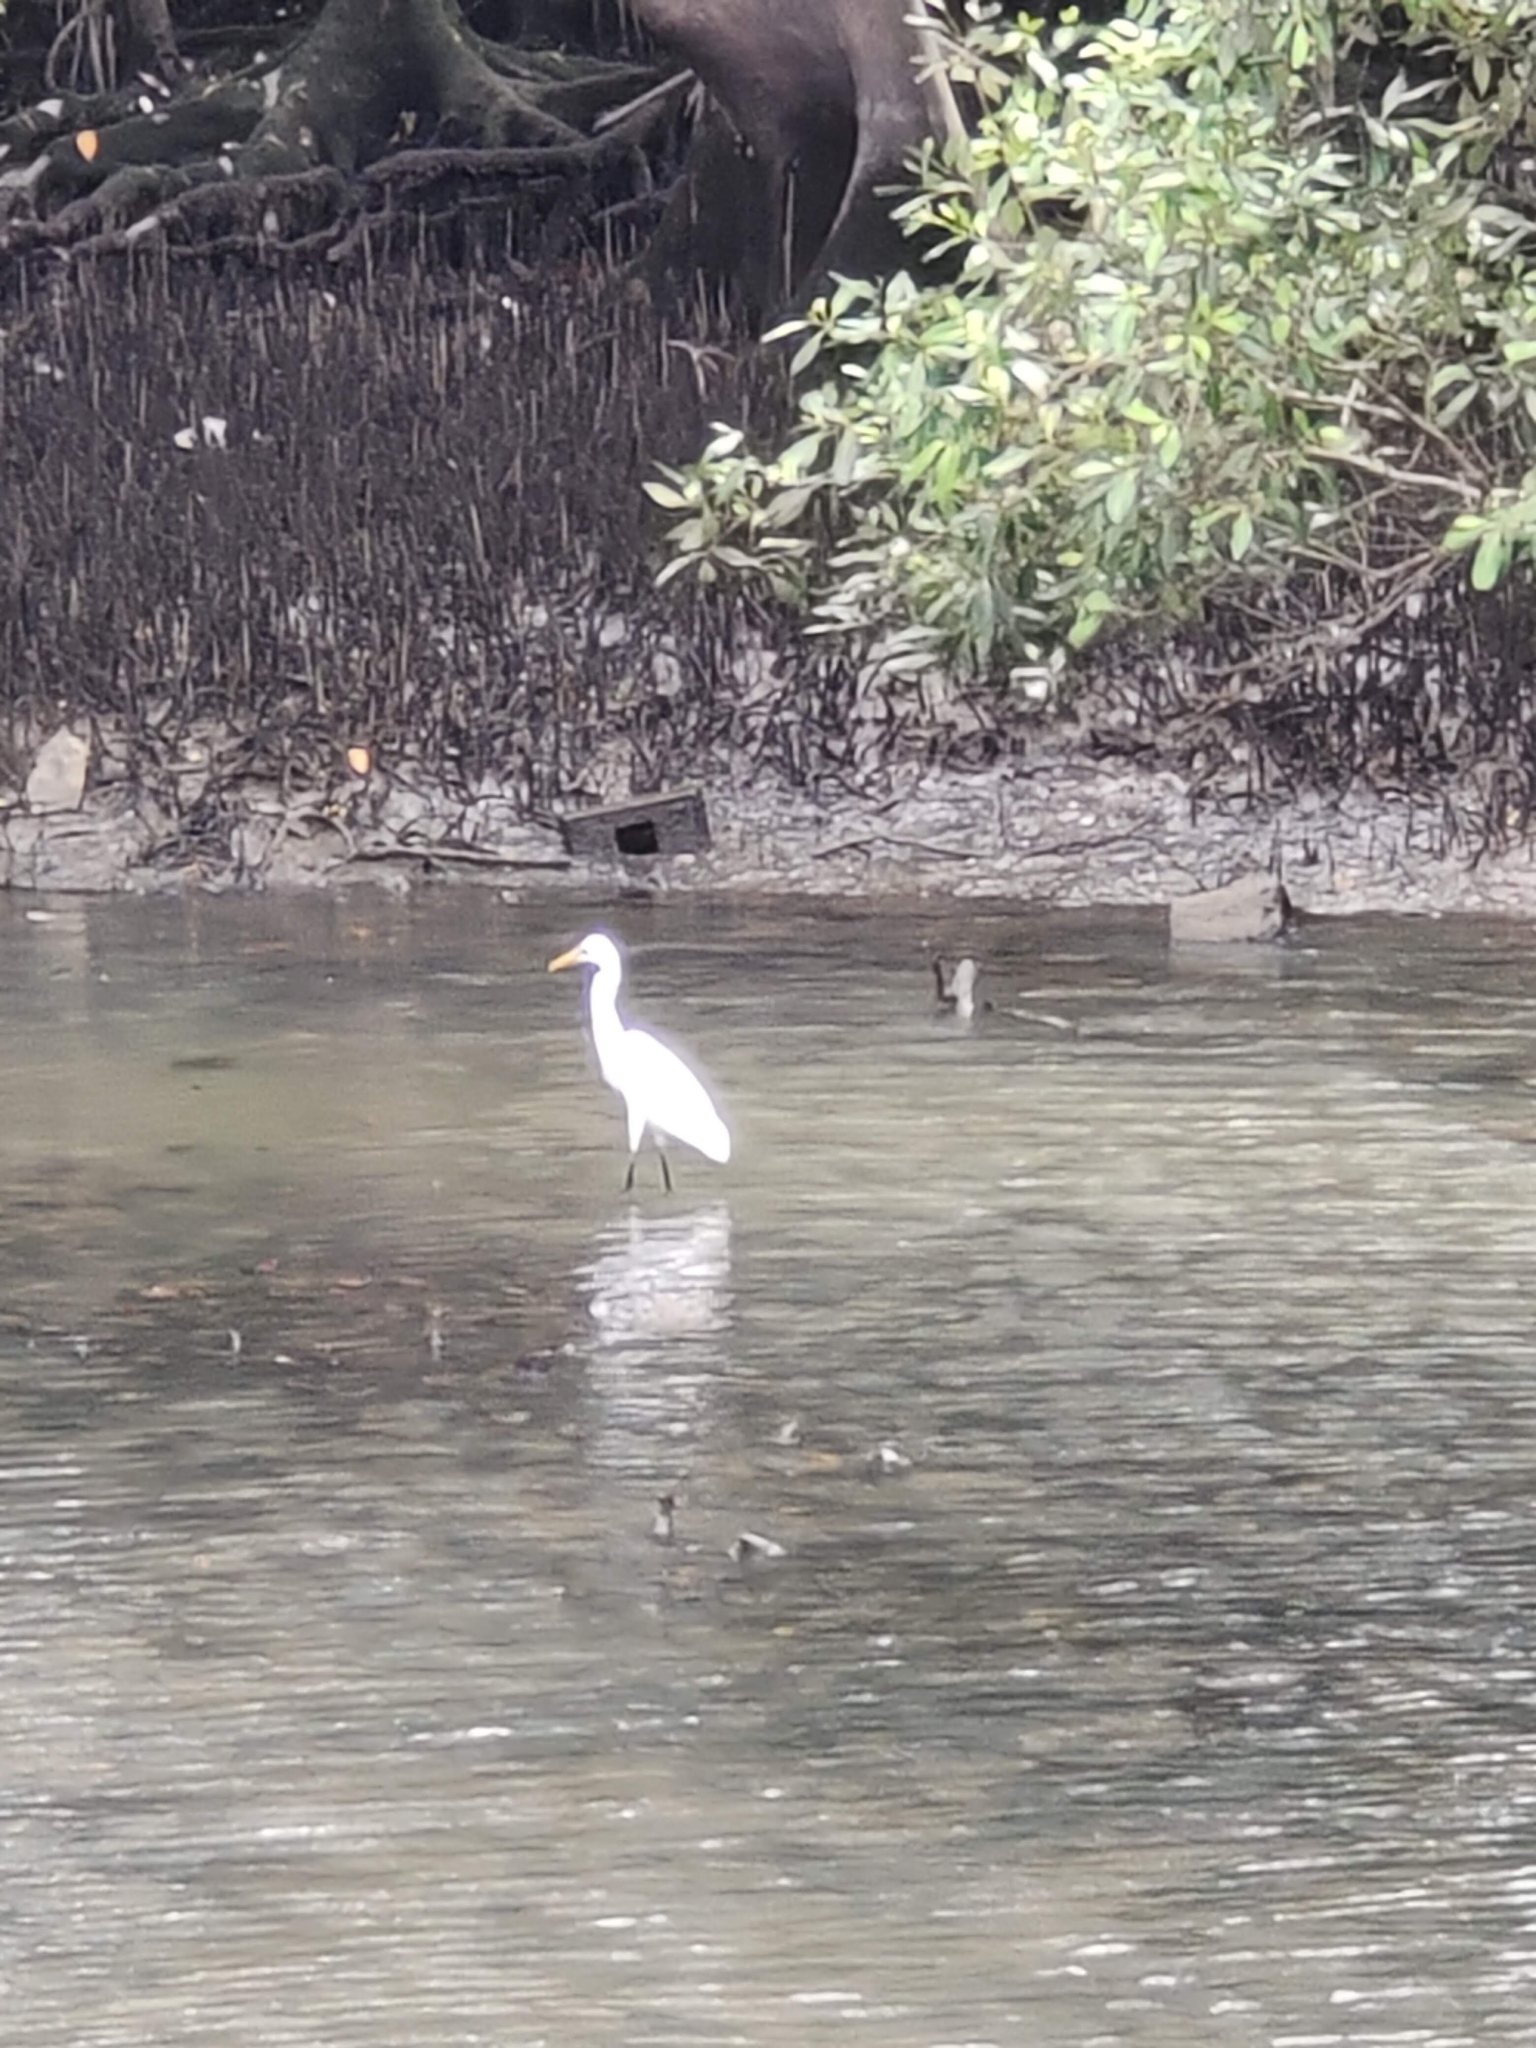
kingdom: Animalia
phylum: Chordata
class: Aves
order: Pelecaniformes
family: Ardeidae
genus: Bubulcus
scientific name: Bubulcus coromandus
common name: Eastern cattle egret
